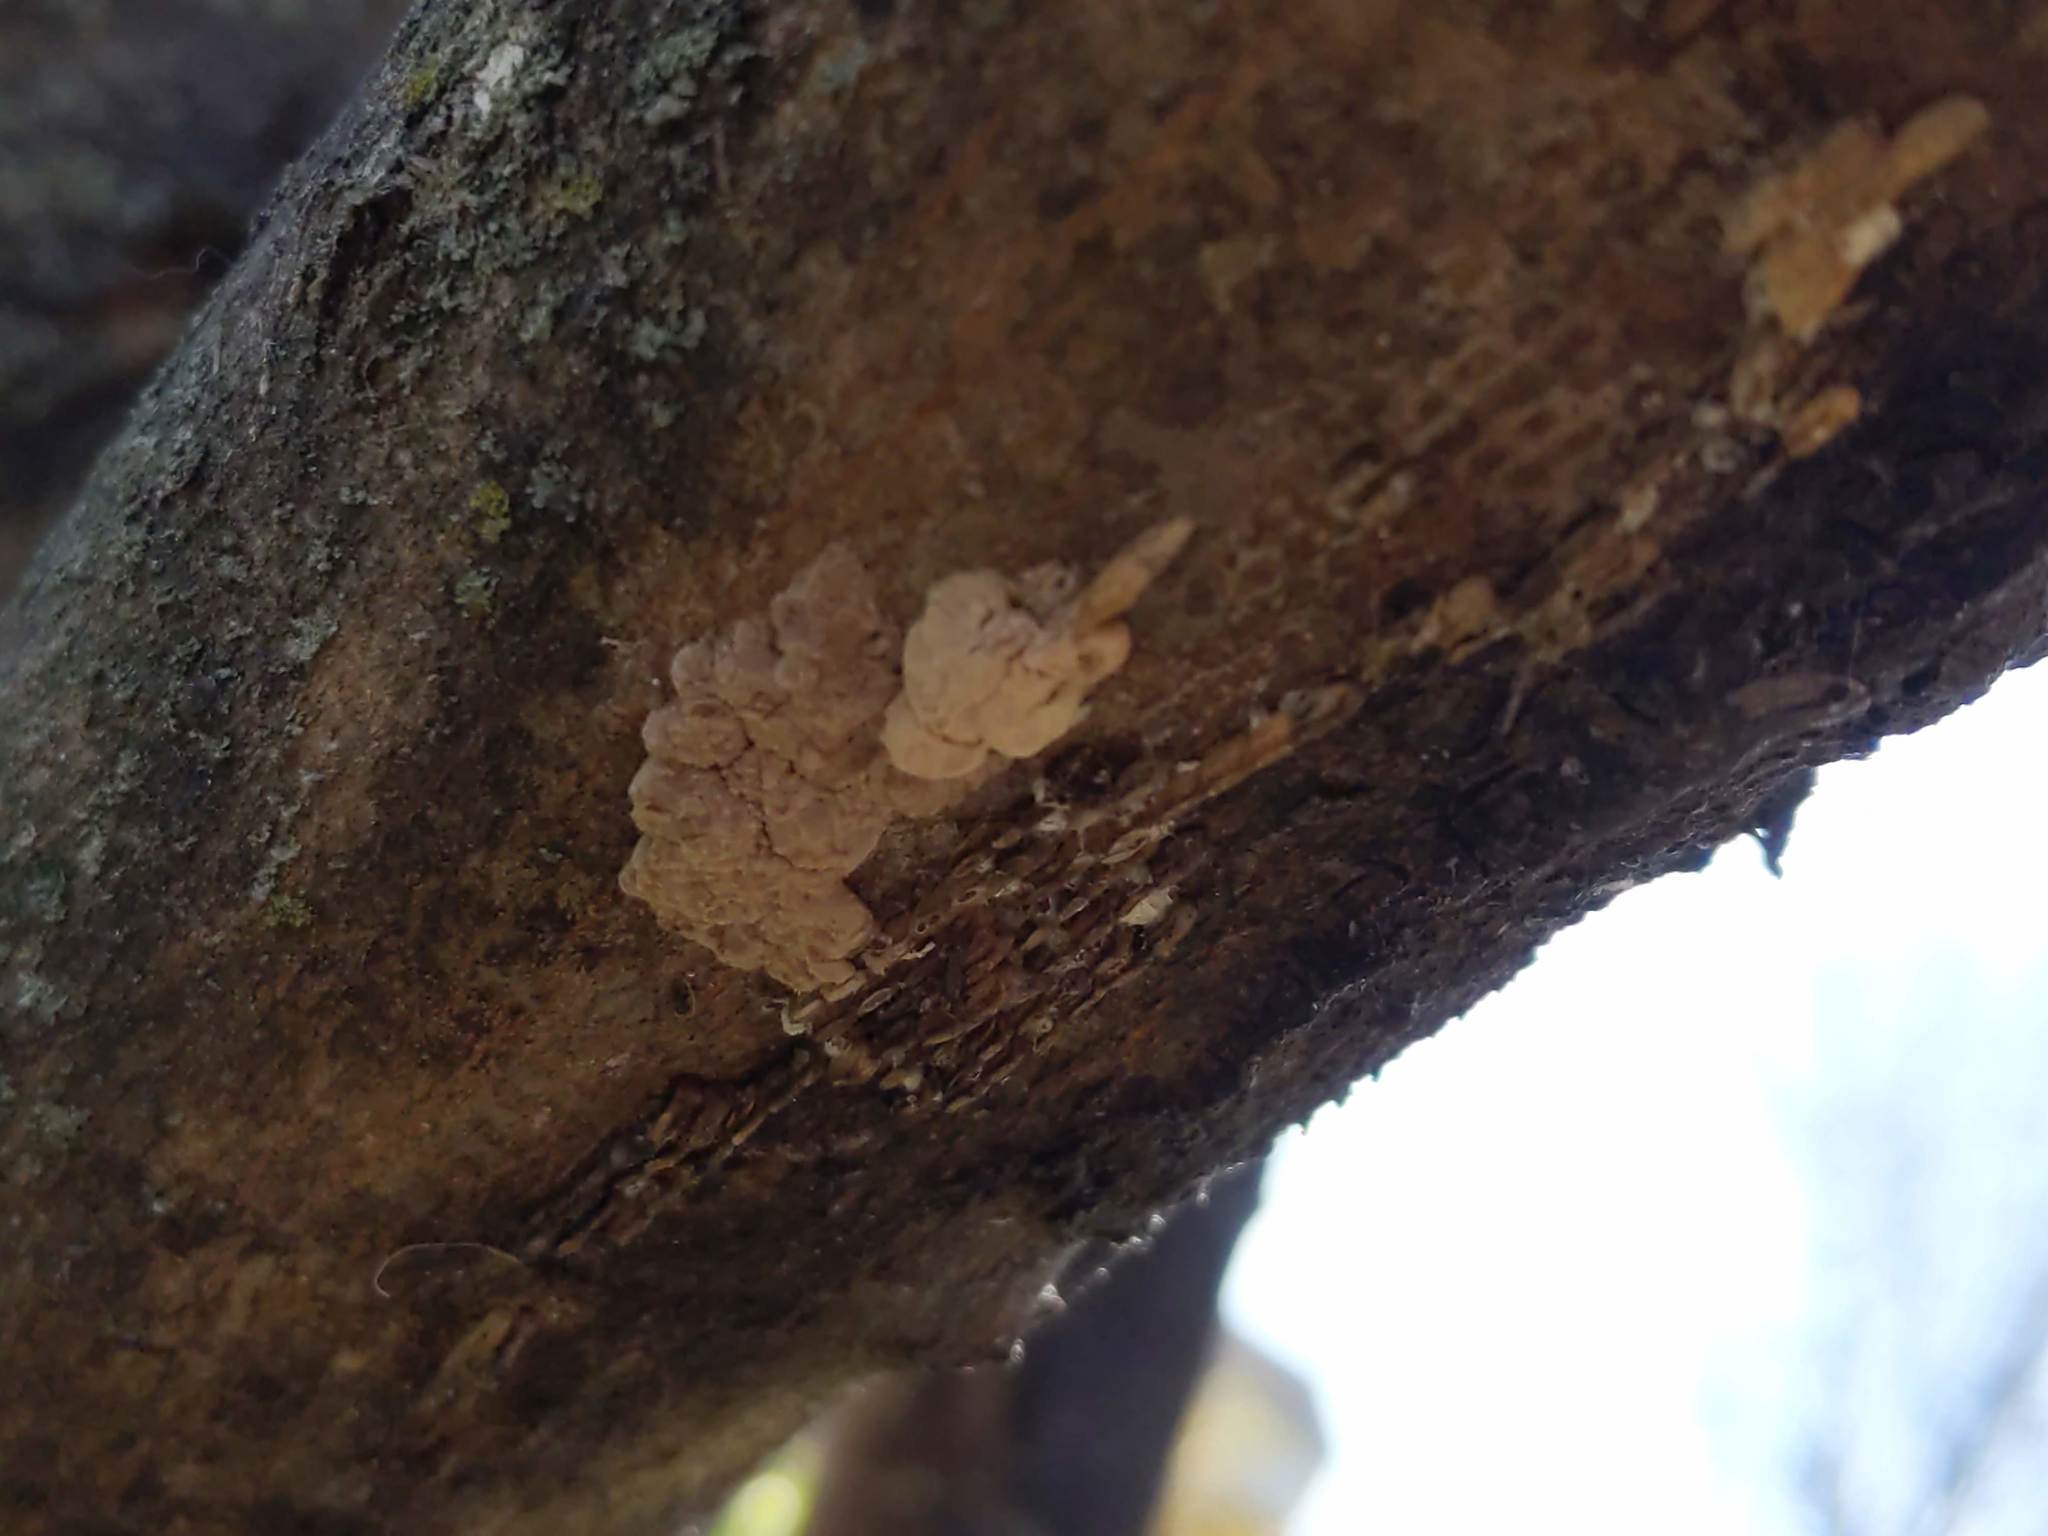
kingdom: Animalia
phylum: Arthropoda
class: Insecta
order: Hemiptera
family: Fulgoridae
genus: Lycorma
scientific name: Lycorma delicatula
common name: Spotted lanternfly
